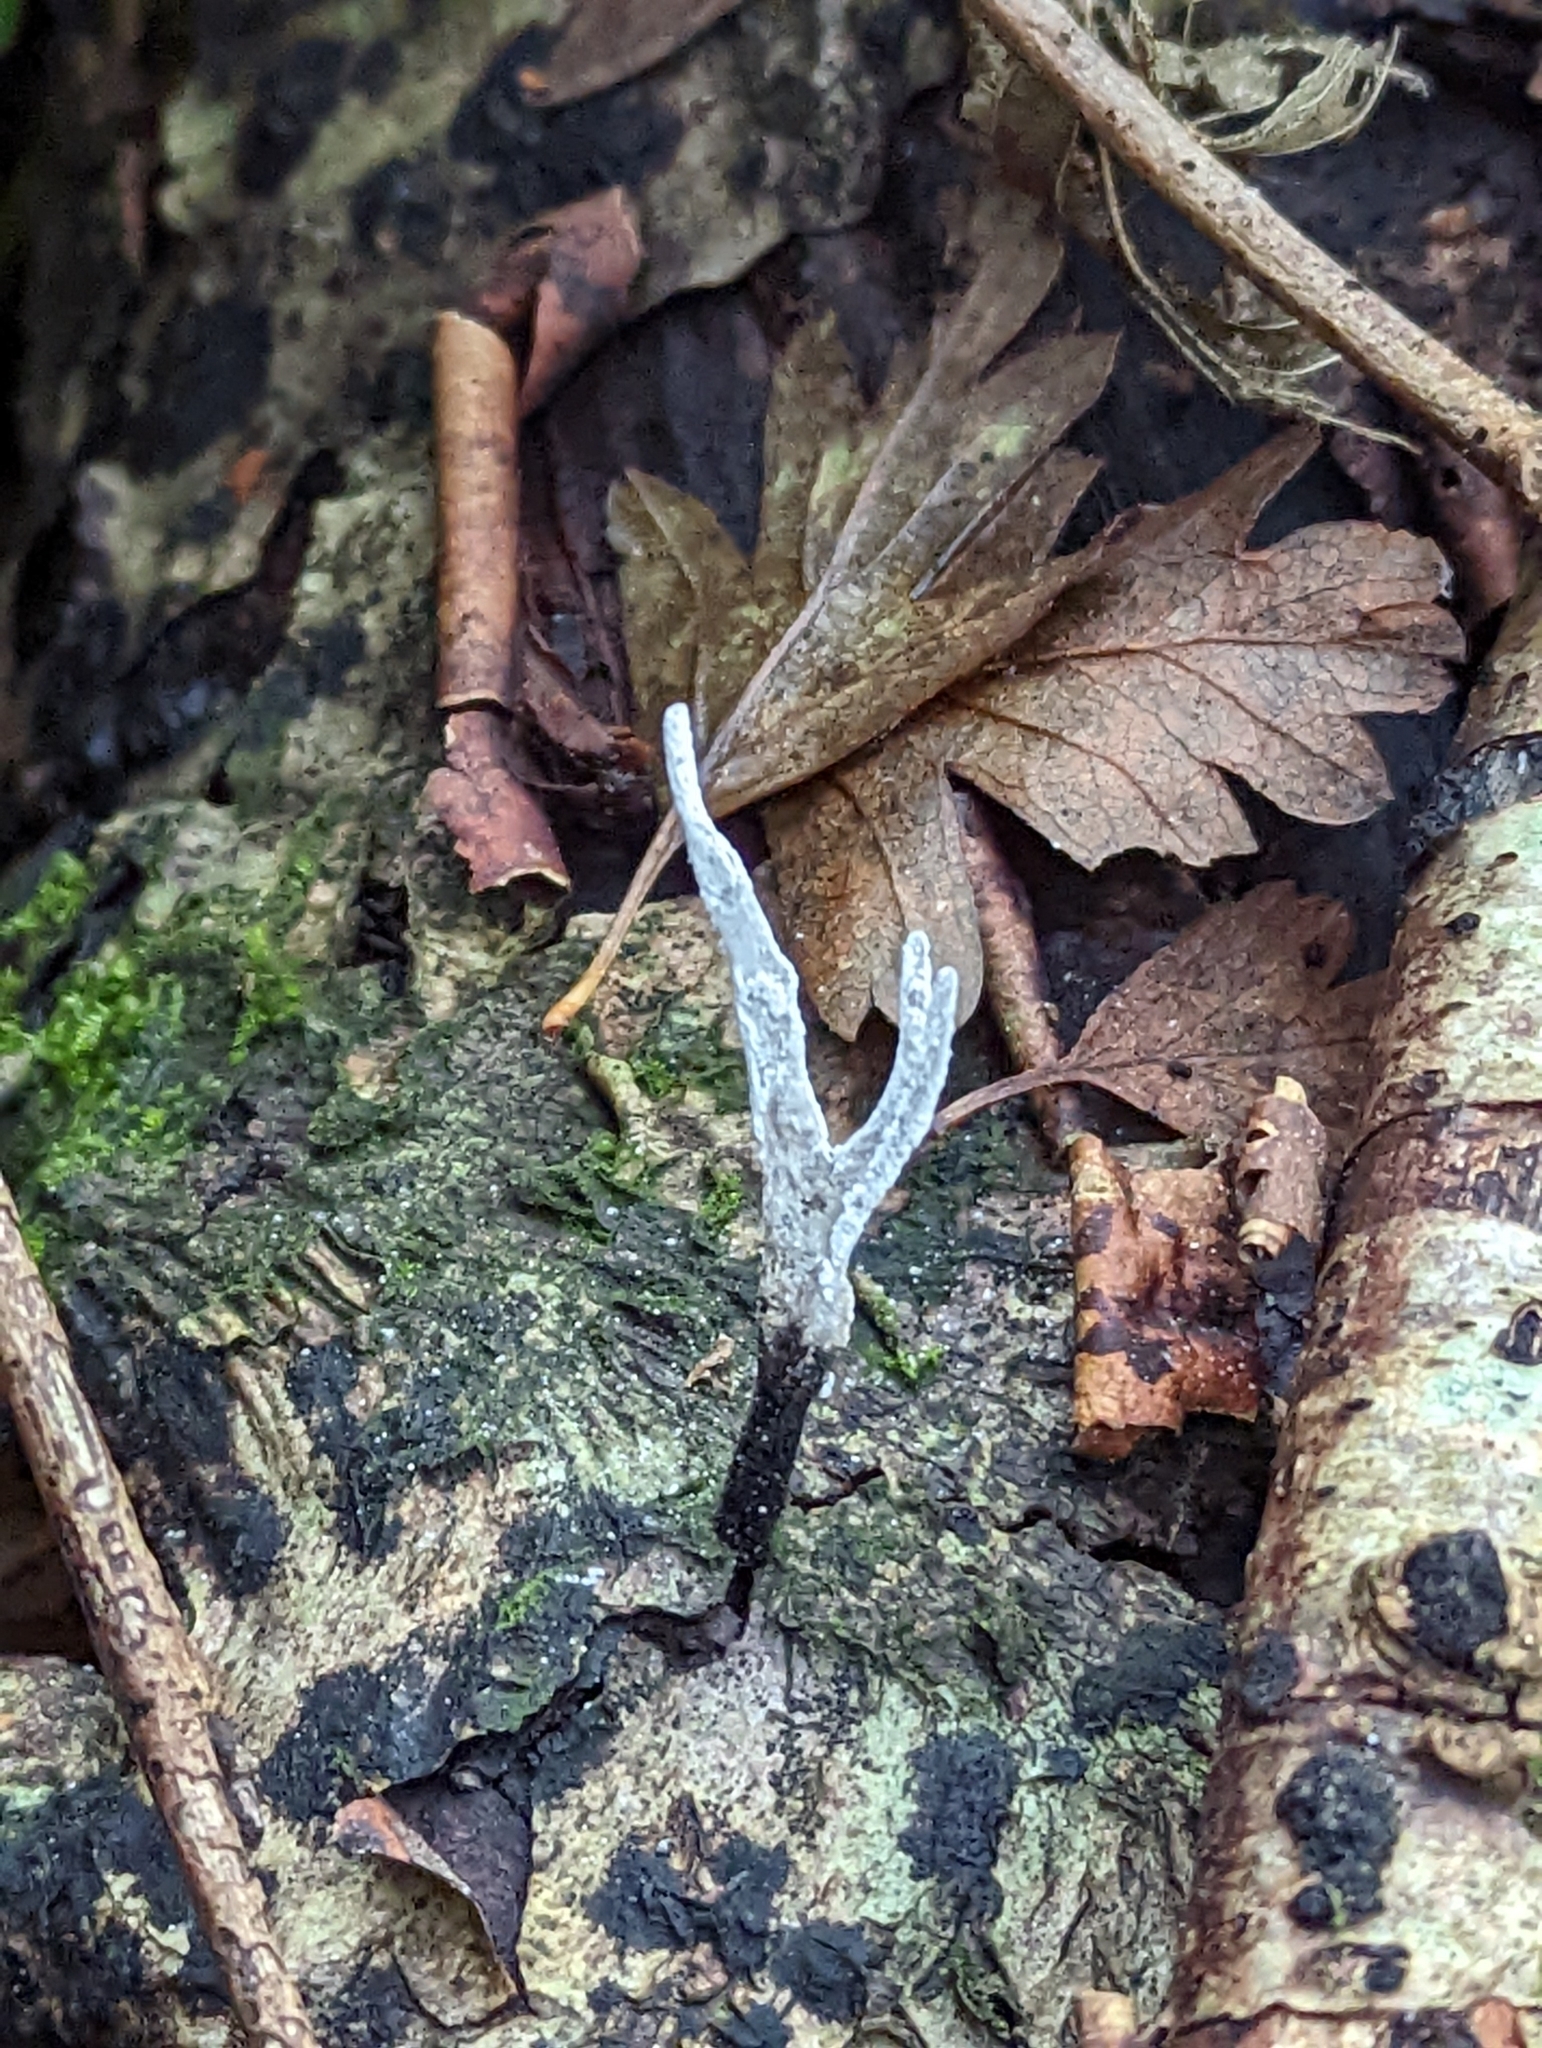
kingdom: Fungi
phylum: Ascomycota
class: Sordariomycetes
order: Xylariales
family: Xylariaceae
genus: Xylaria
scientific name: Xylaria hypoxylon
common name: Candle-snuff fungus
